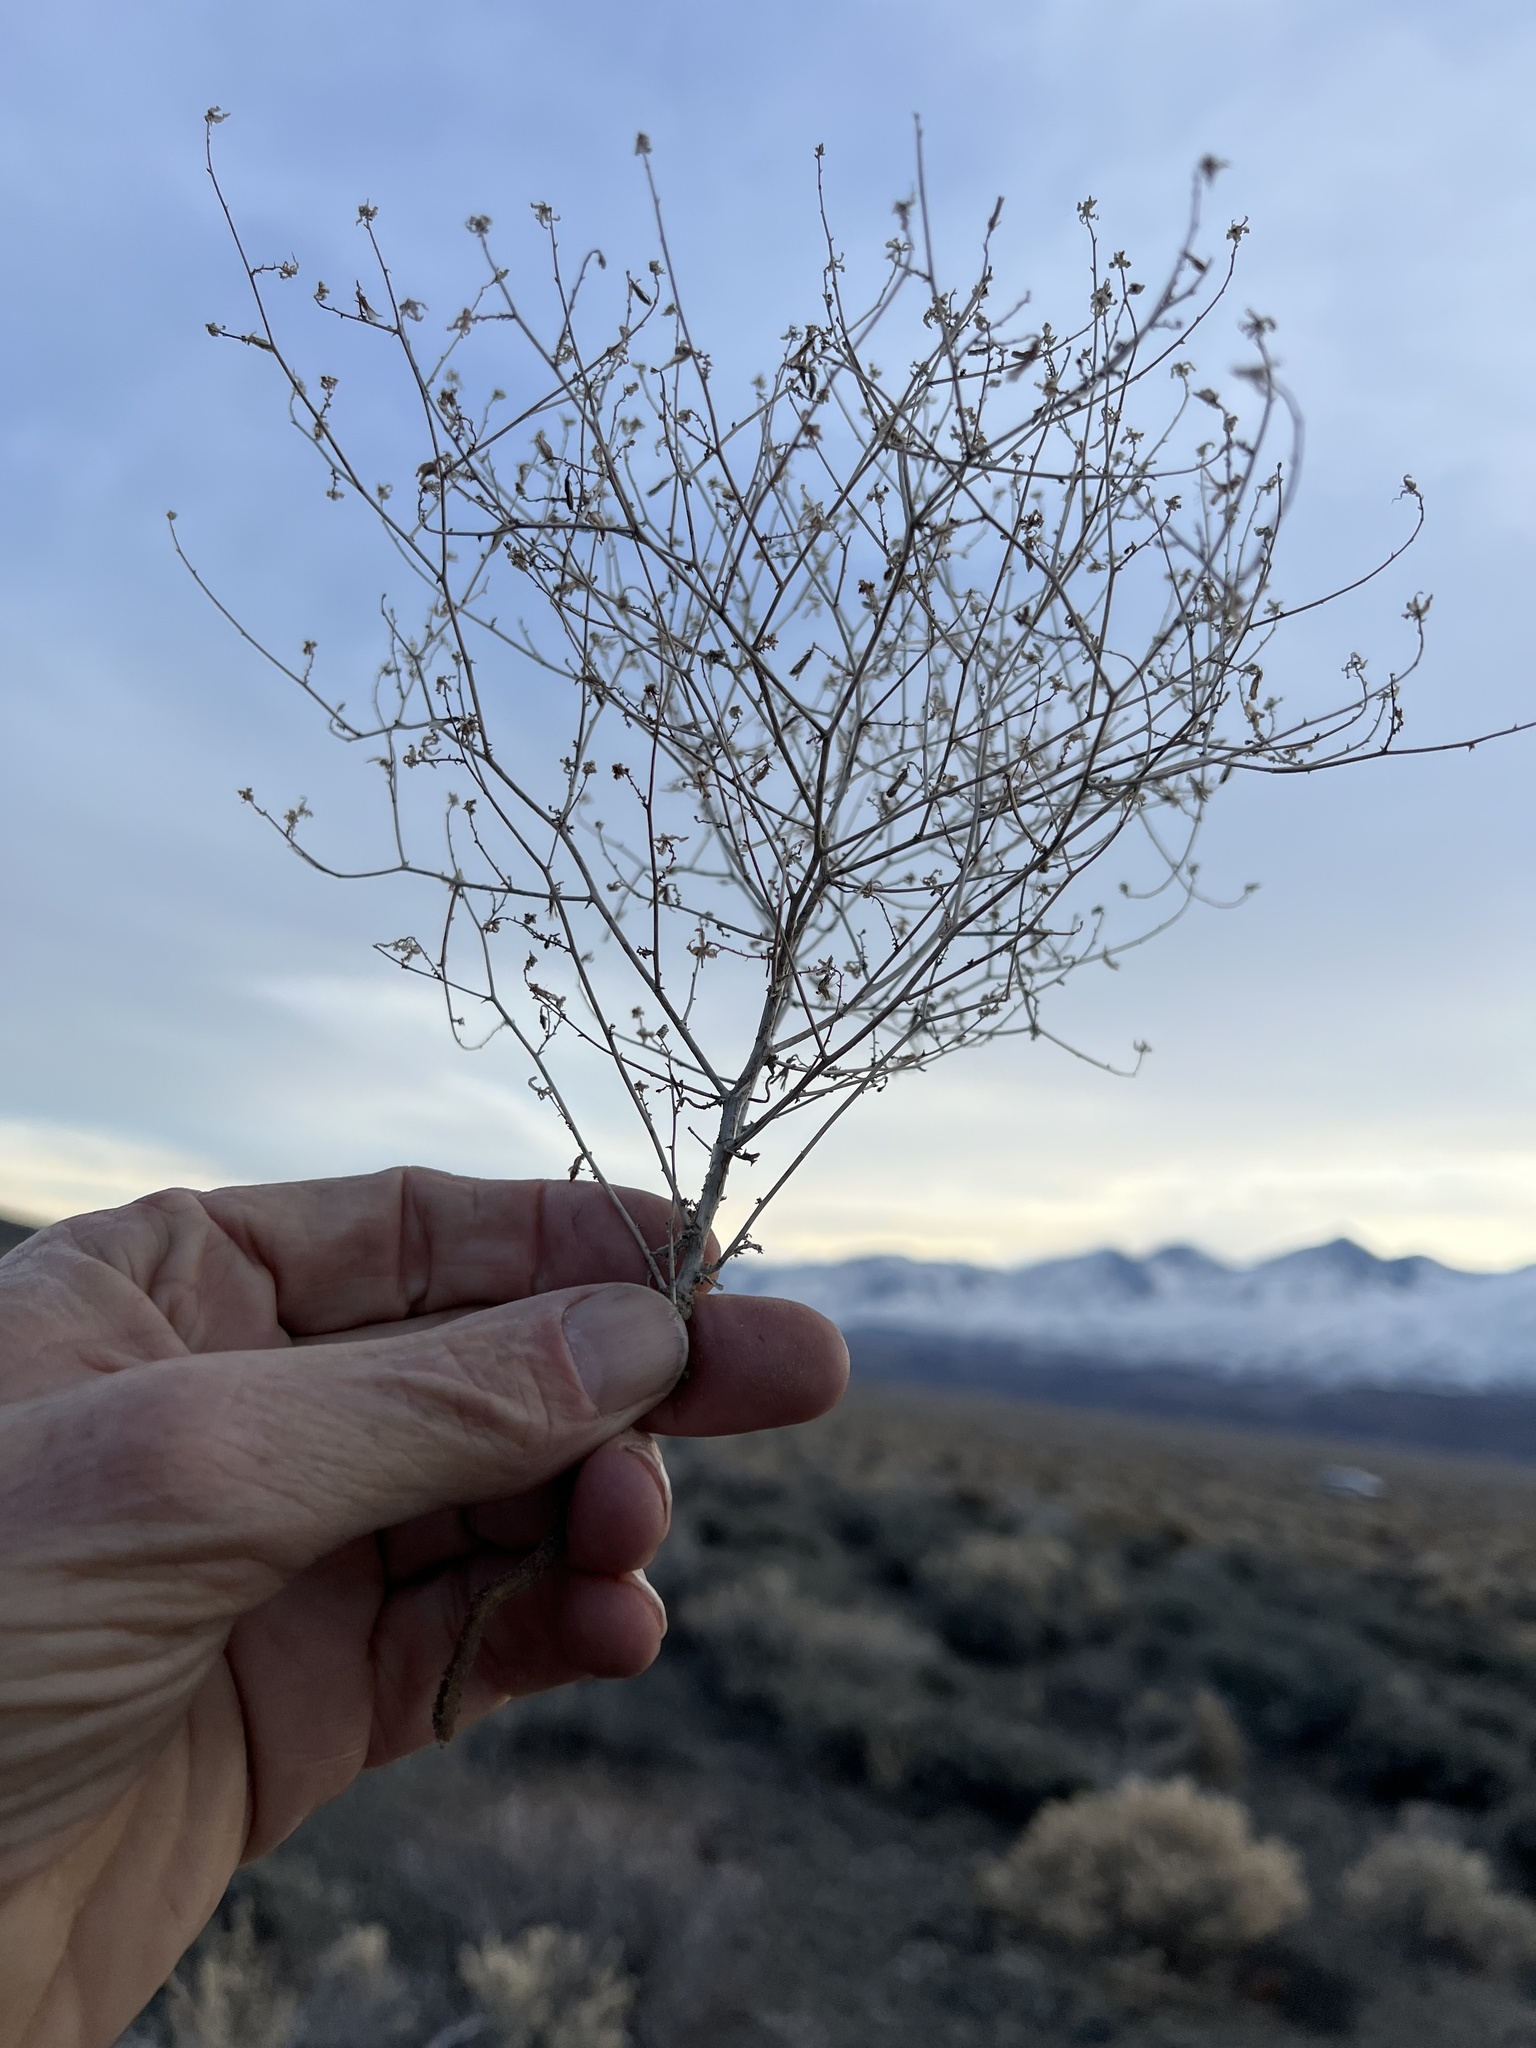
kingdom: Plantae
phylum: Tracheophyta
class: Magnoliopsida
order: Asterales
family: Asteraceae
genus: Stephanomeria
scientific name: Stephanomeria exigua
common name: Small wirelettuce
